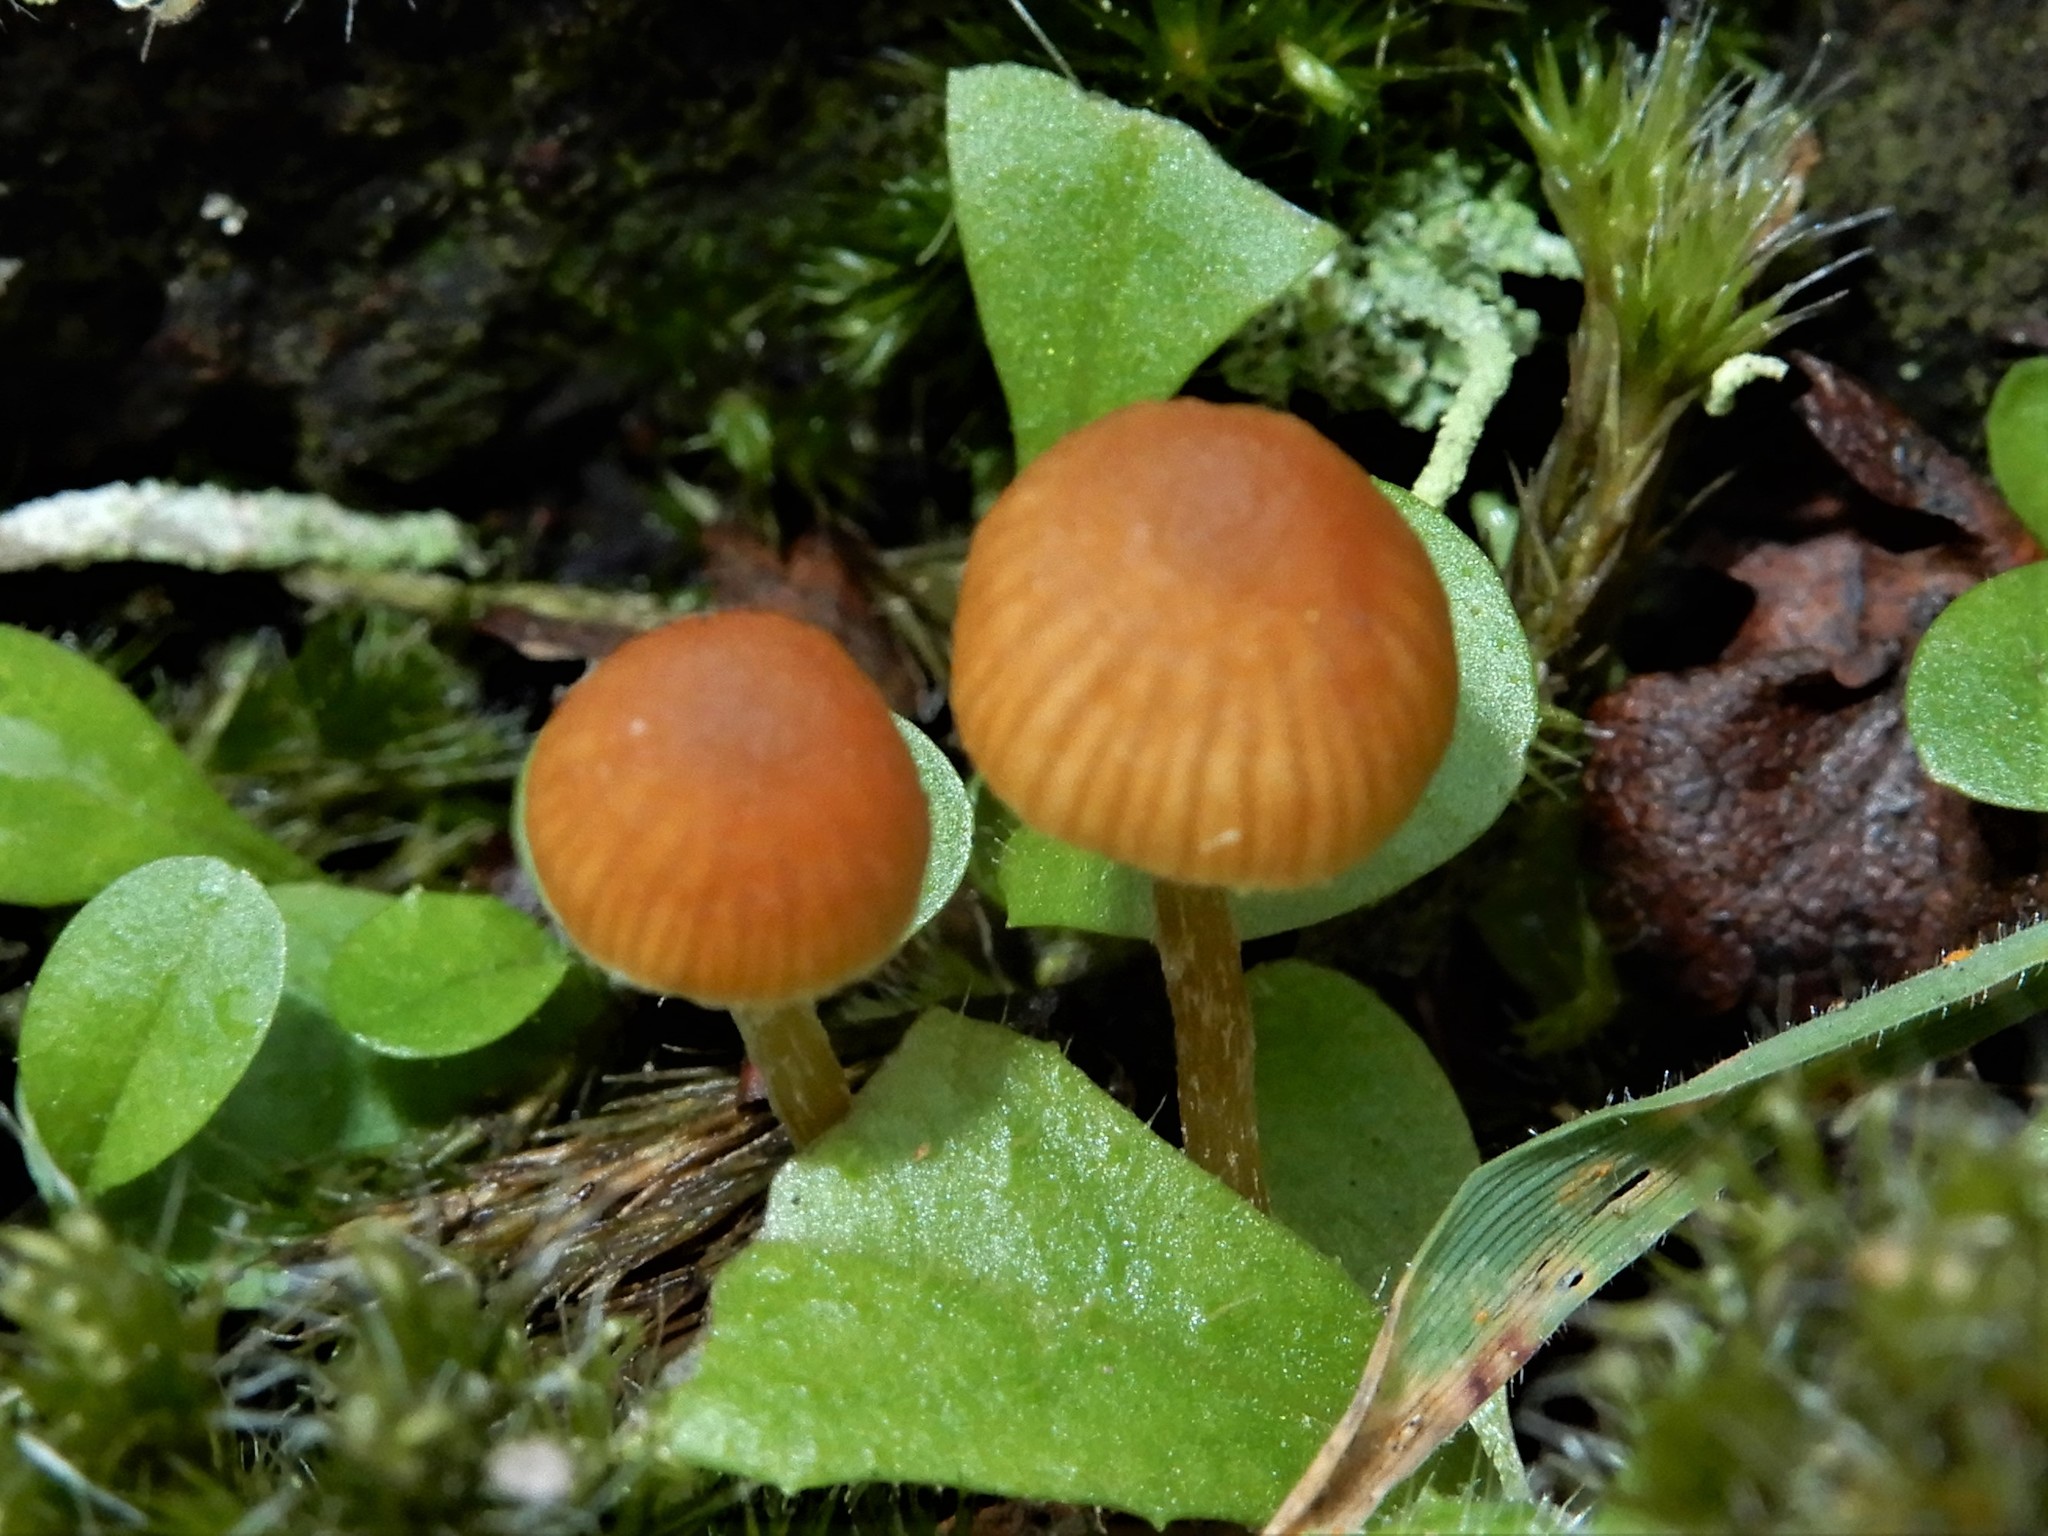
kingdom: Fungi
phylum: Basidiomycota
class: Agaricomycetes
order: Agaricales
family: Hymenogastraceae
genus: Galerina
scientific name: Galerina
